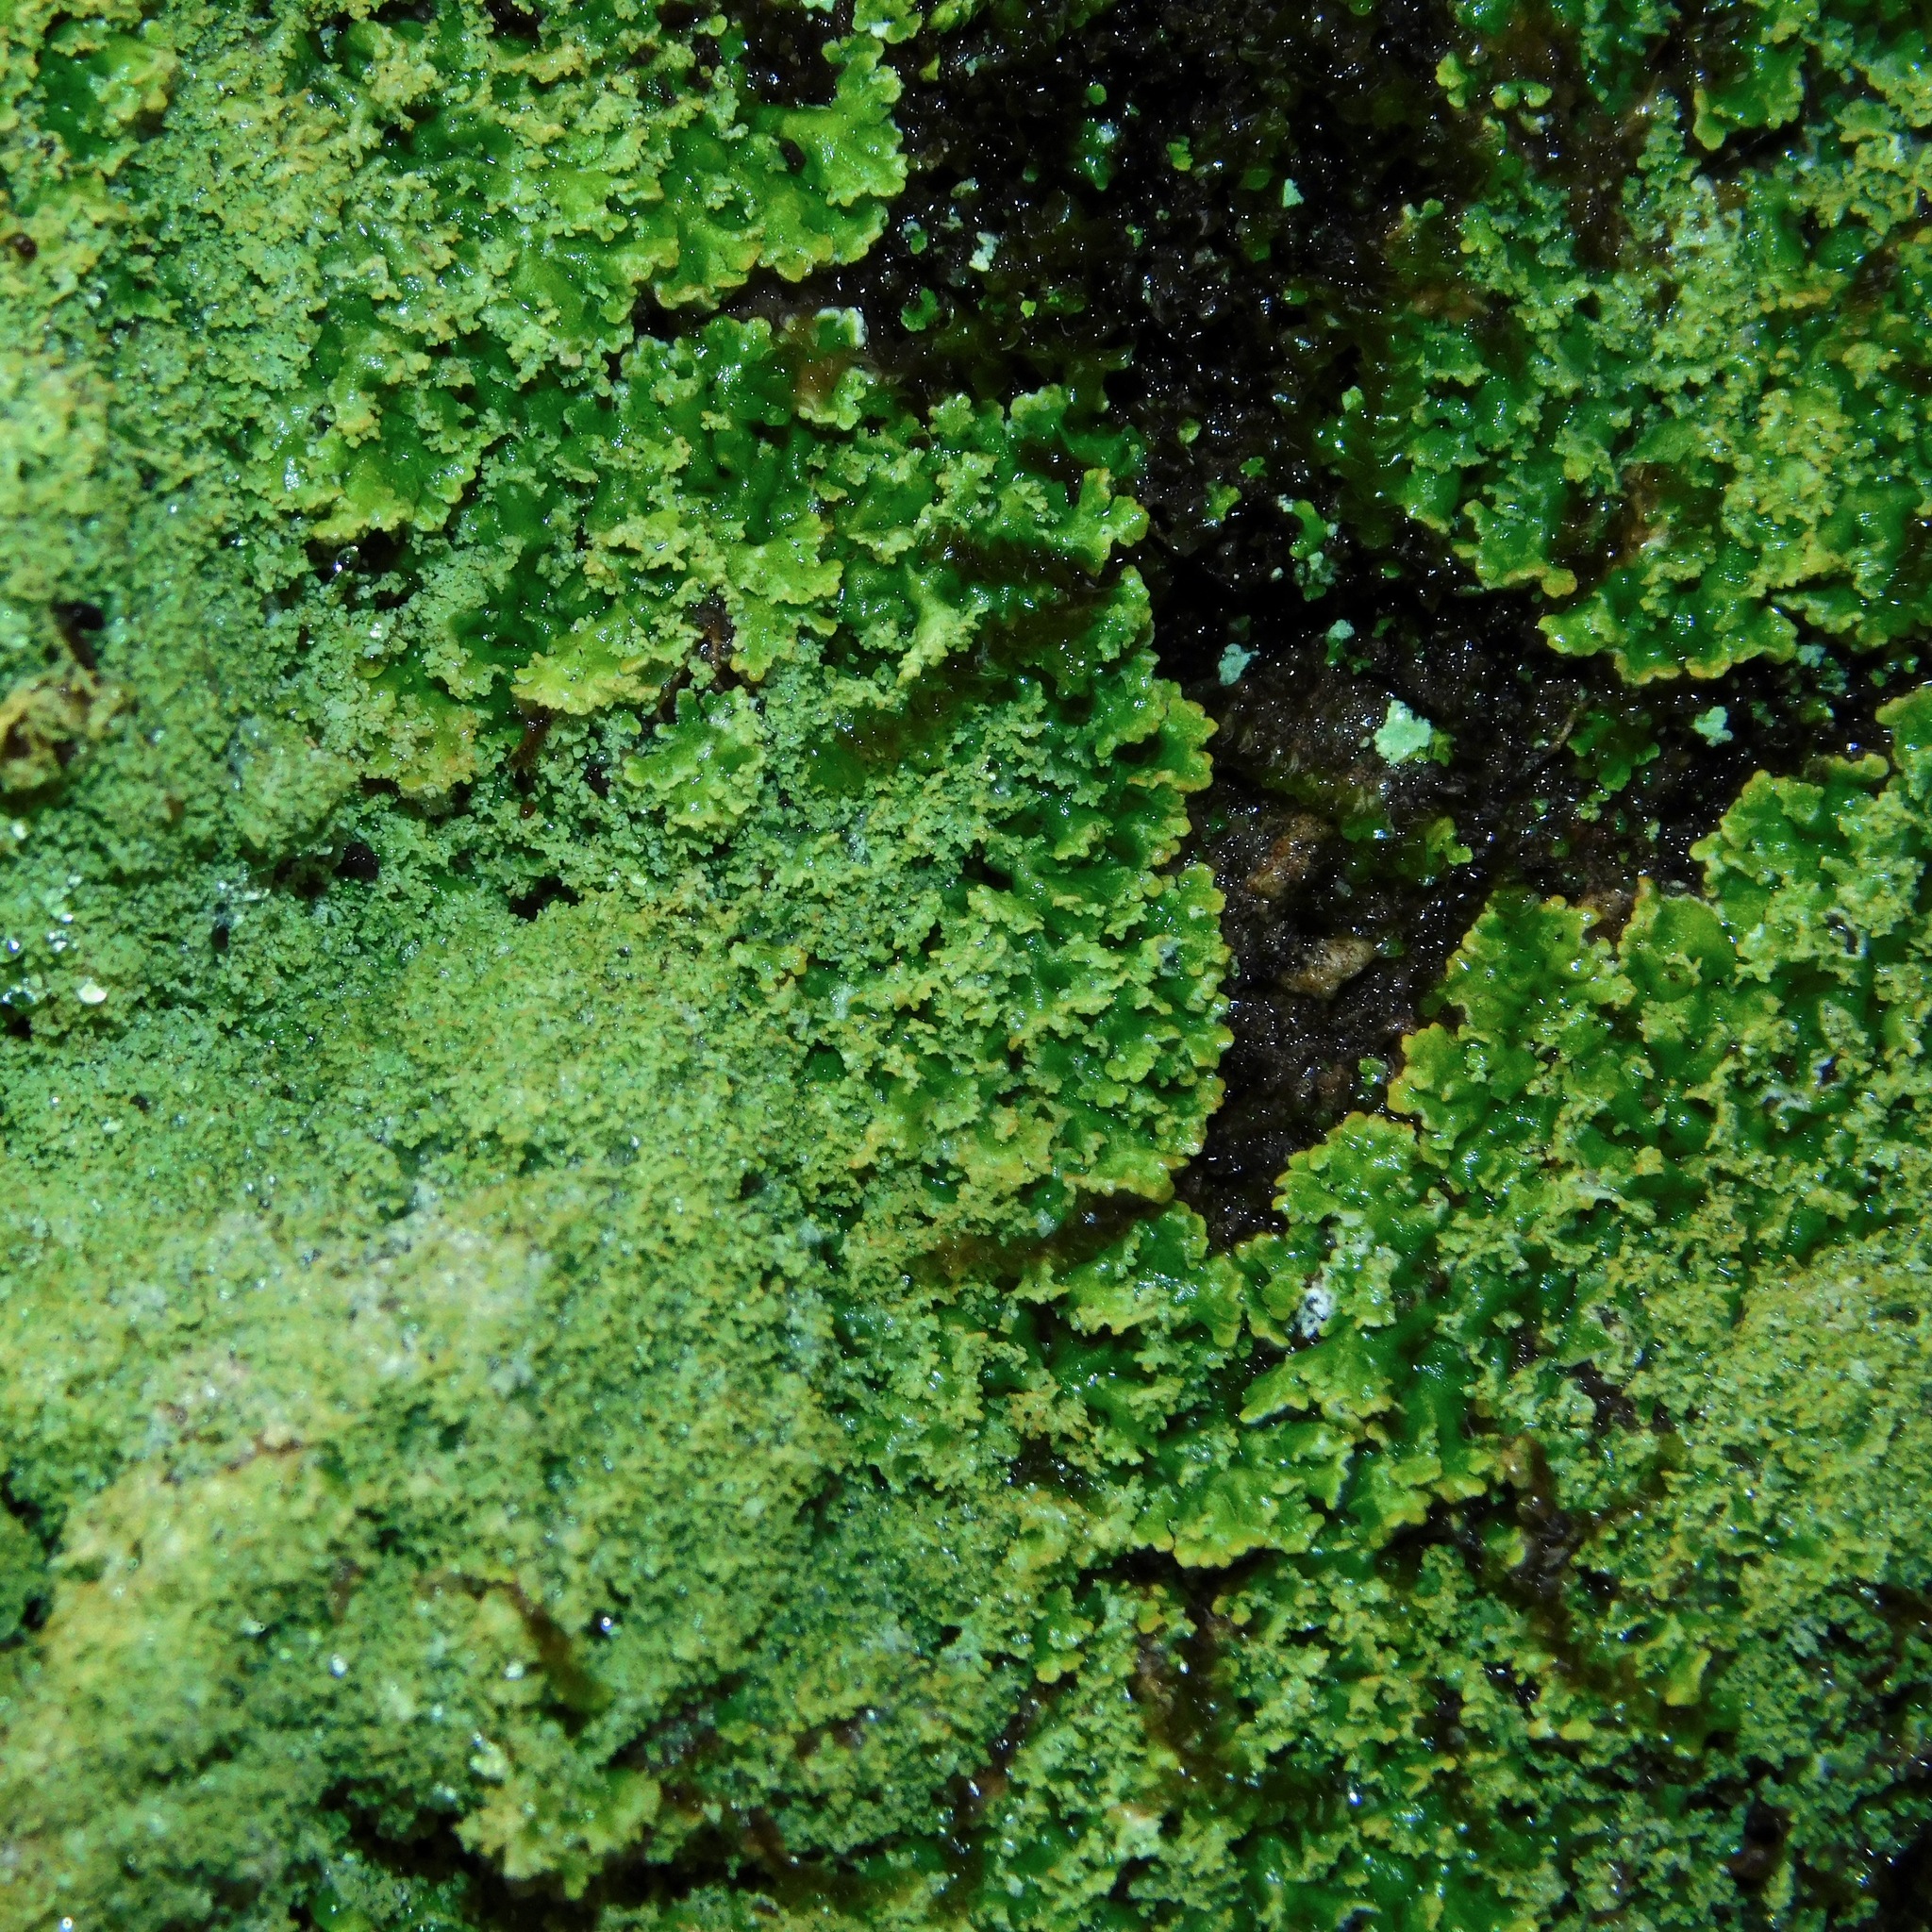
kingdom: Fungi
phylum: Ascomycota
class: Lecanoromycetes
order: Lecanorales
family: Cladoniaceae
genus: Cladonia
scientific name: Cladonia petrophila
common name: Rock-loving cladonia
